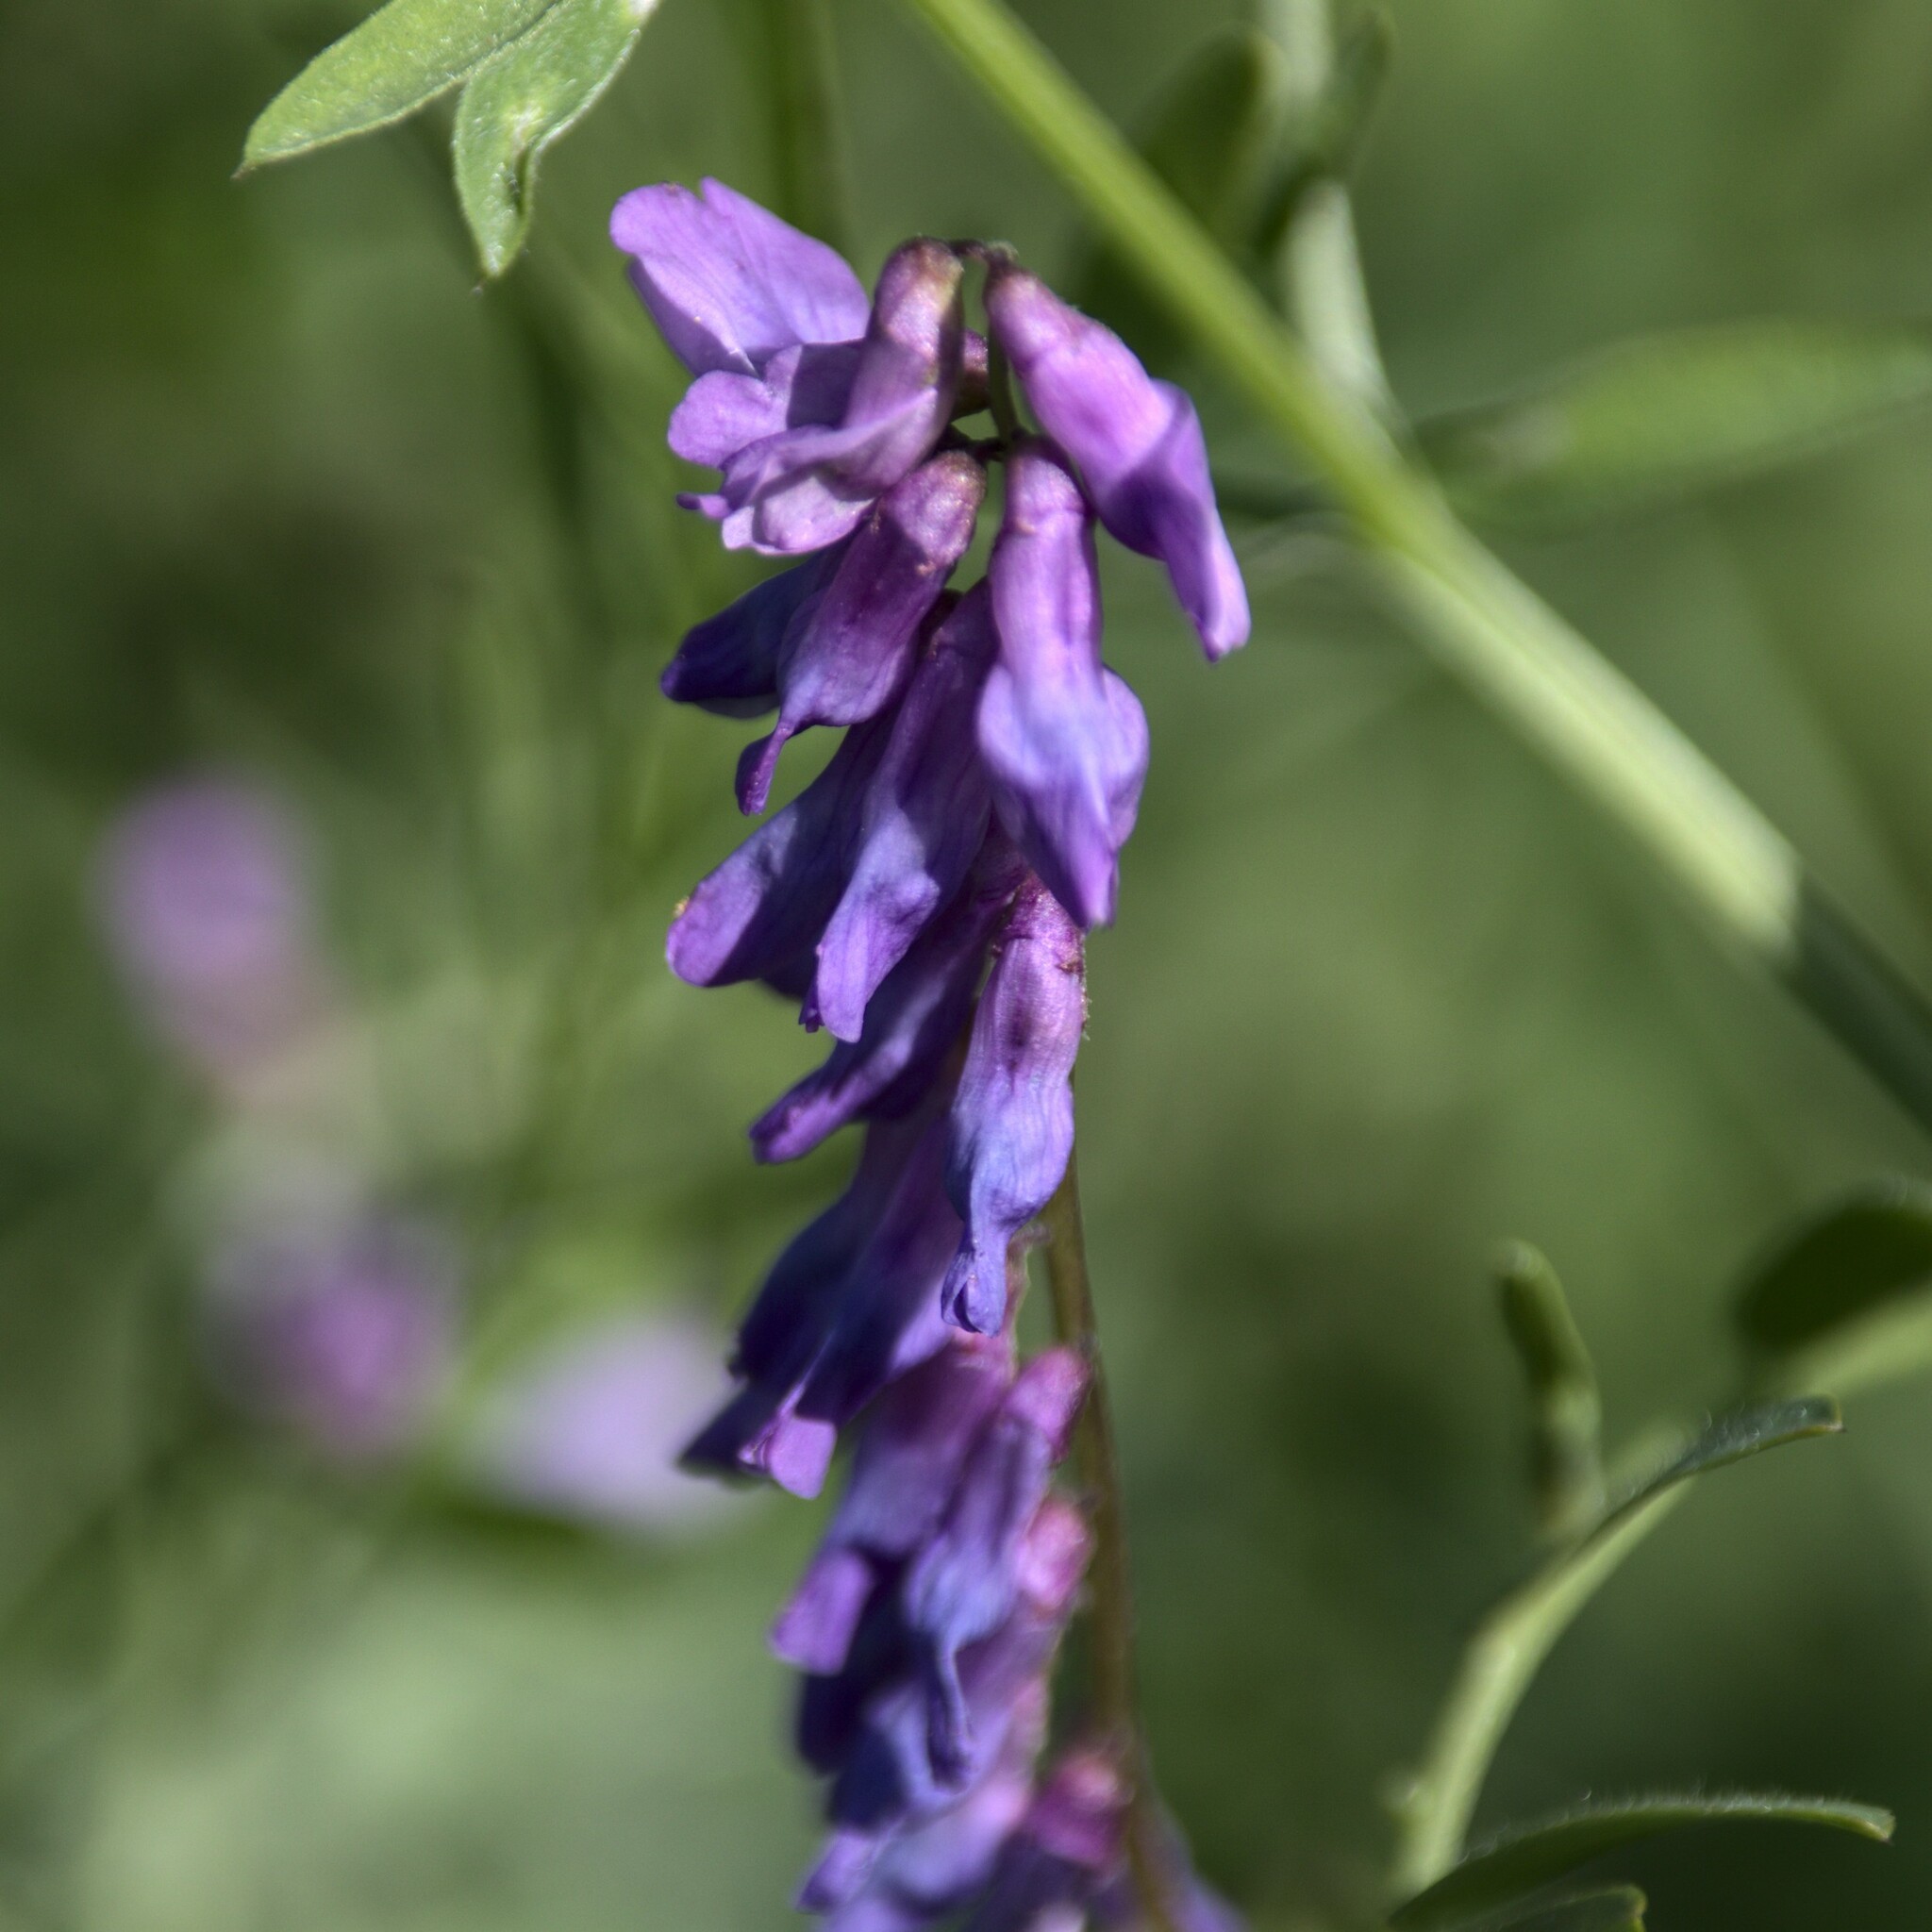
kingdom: Plantae
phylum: Tracheophyta
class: Magnoliopsida
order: Fabales
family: Fabaceae
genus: Vicia
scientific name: Vicia cracca
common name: Bird vetch
